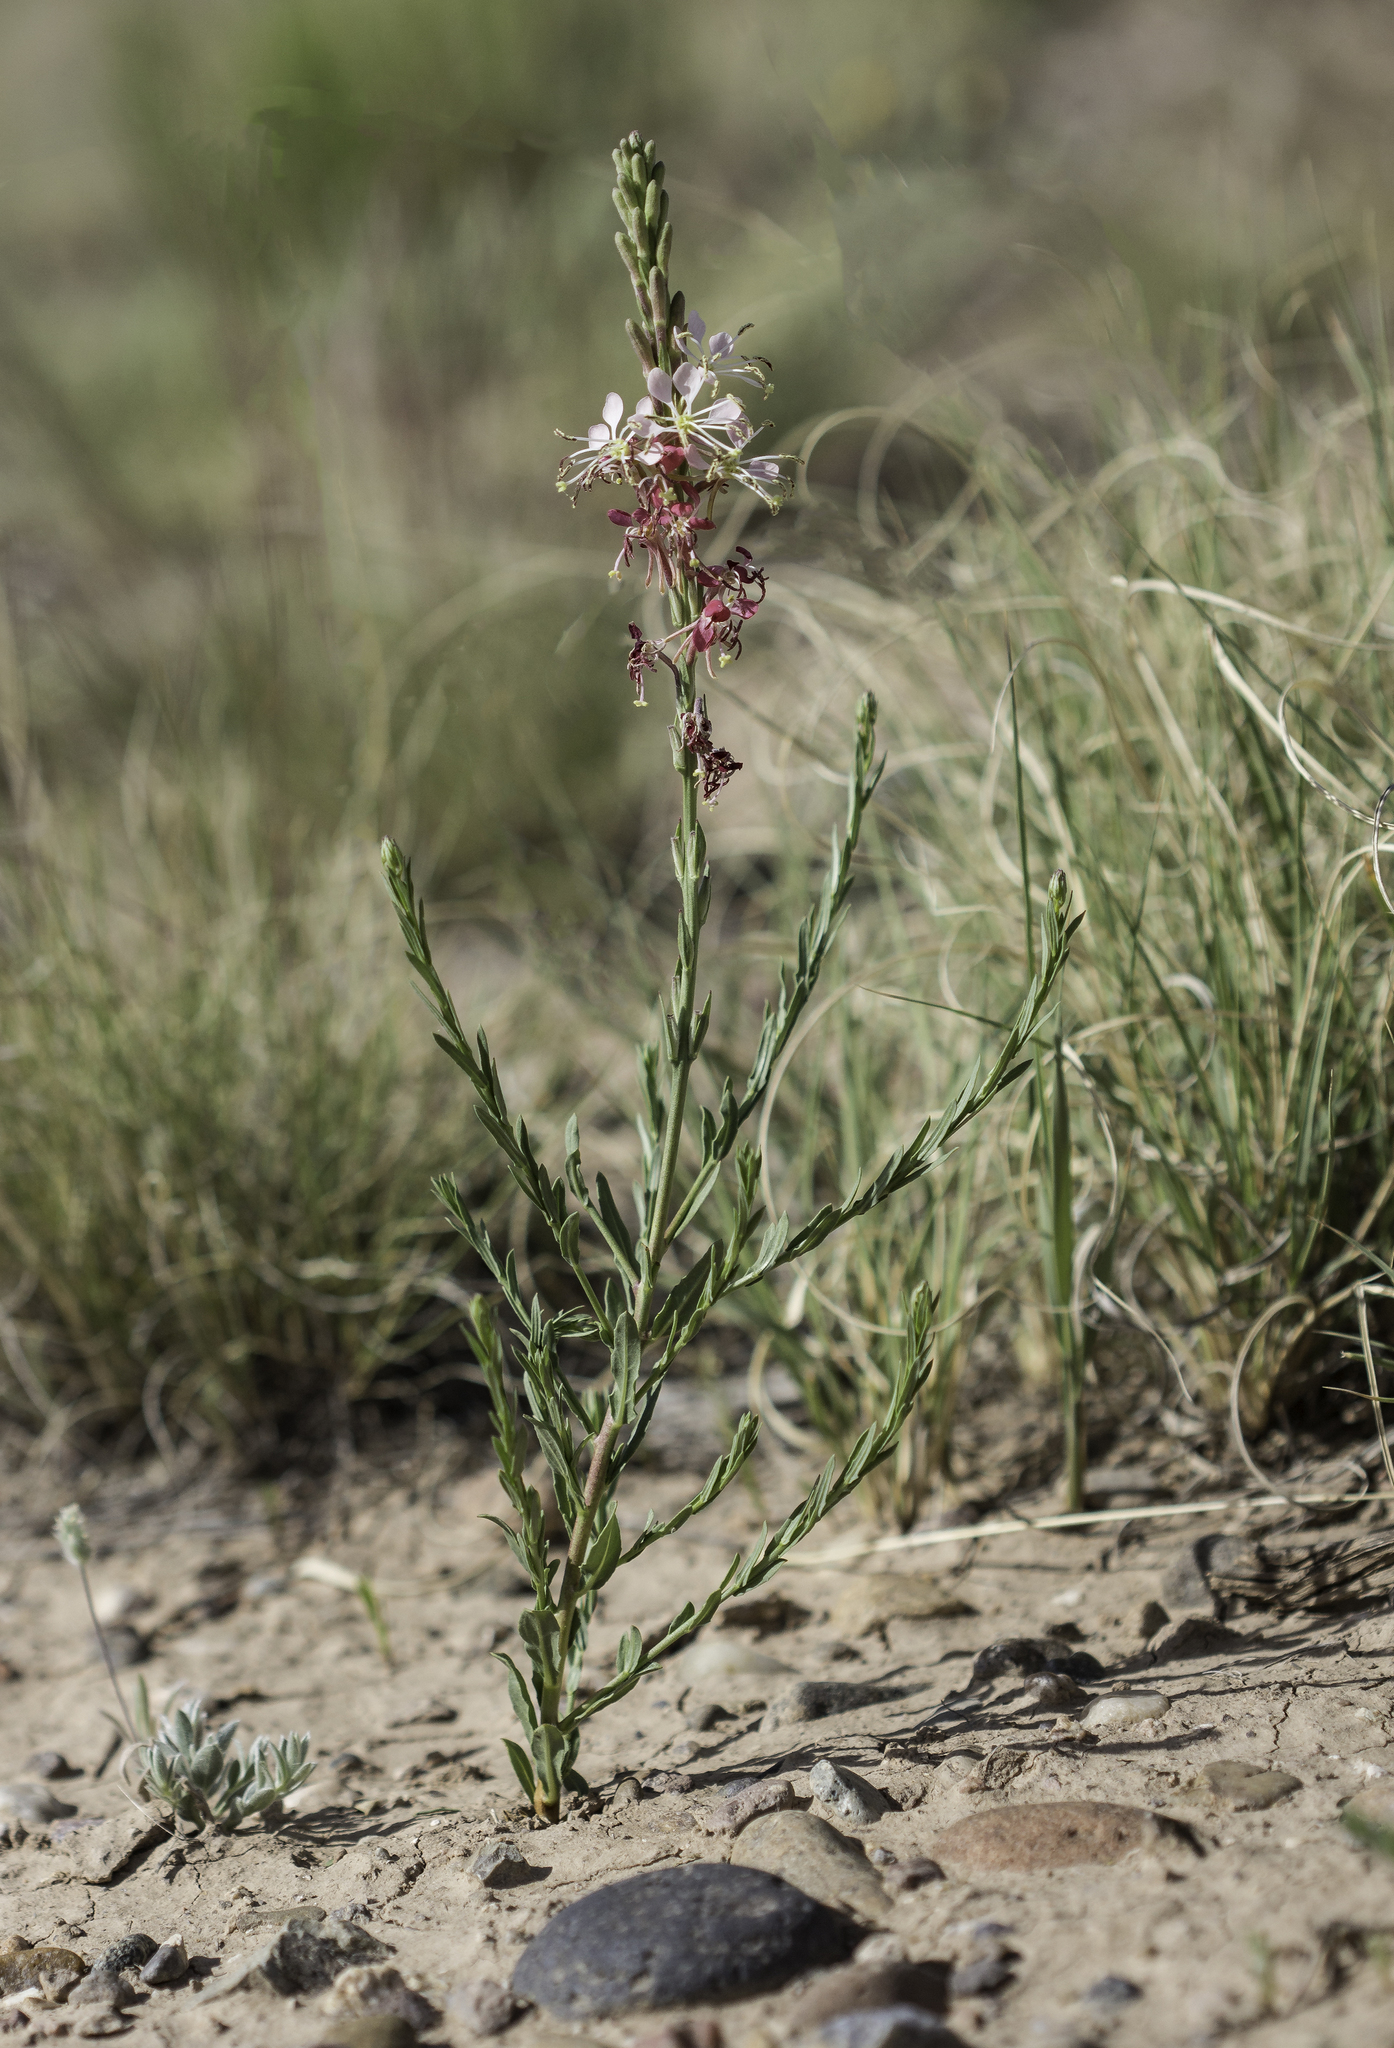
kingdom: Plantae
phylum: Tracheophyta
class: Magnoliopsida
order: Myrtales
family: Onagraceae
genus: Oenothera
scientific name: Oenothera suffrutescens
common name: Scarlet beeblossom
